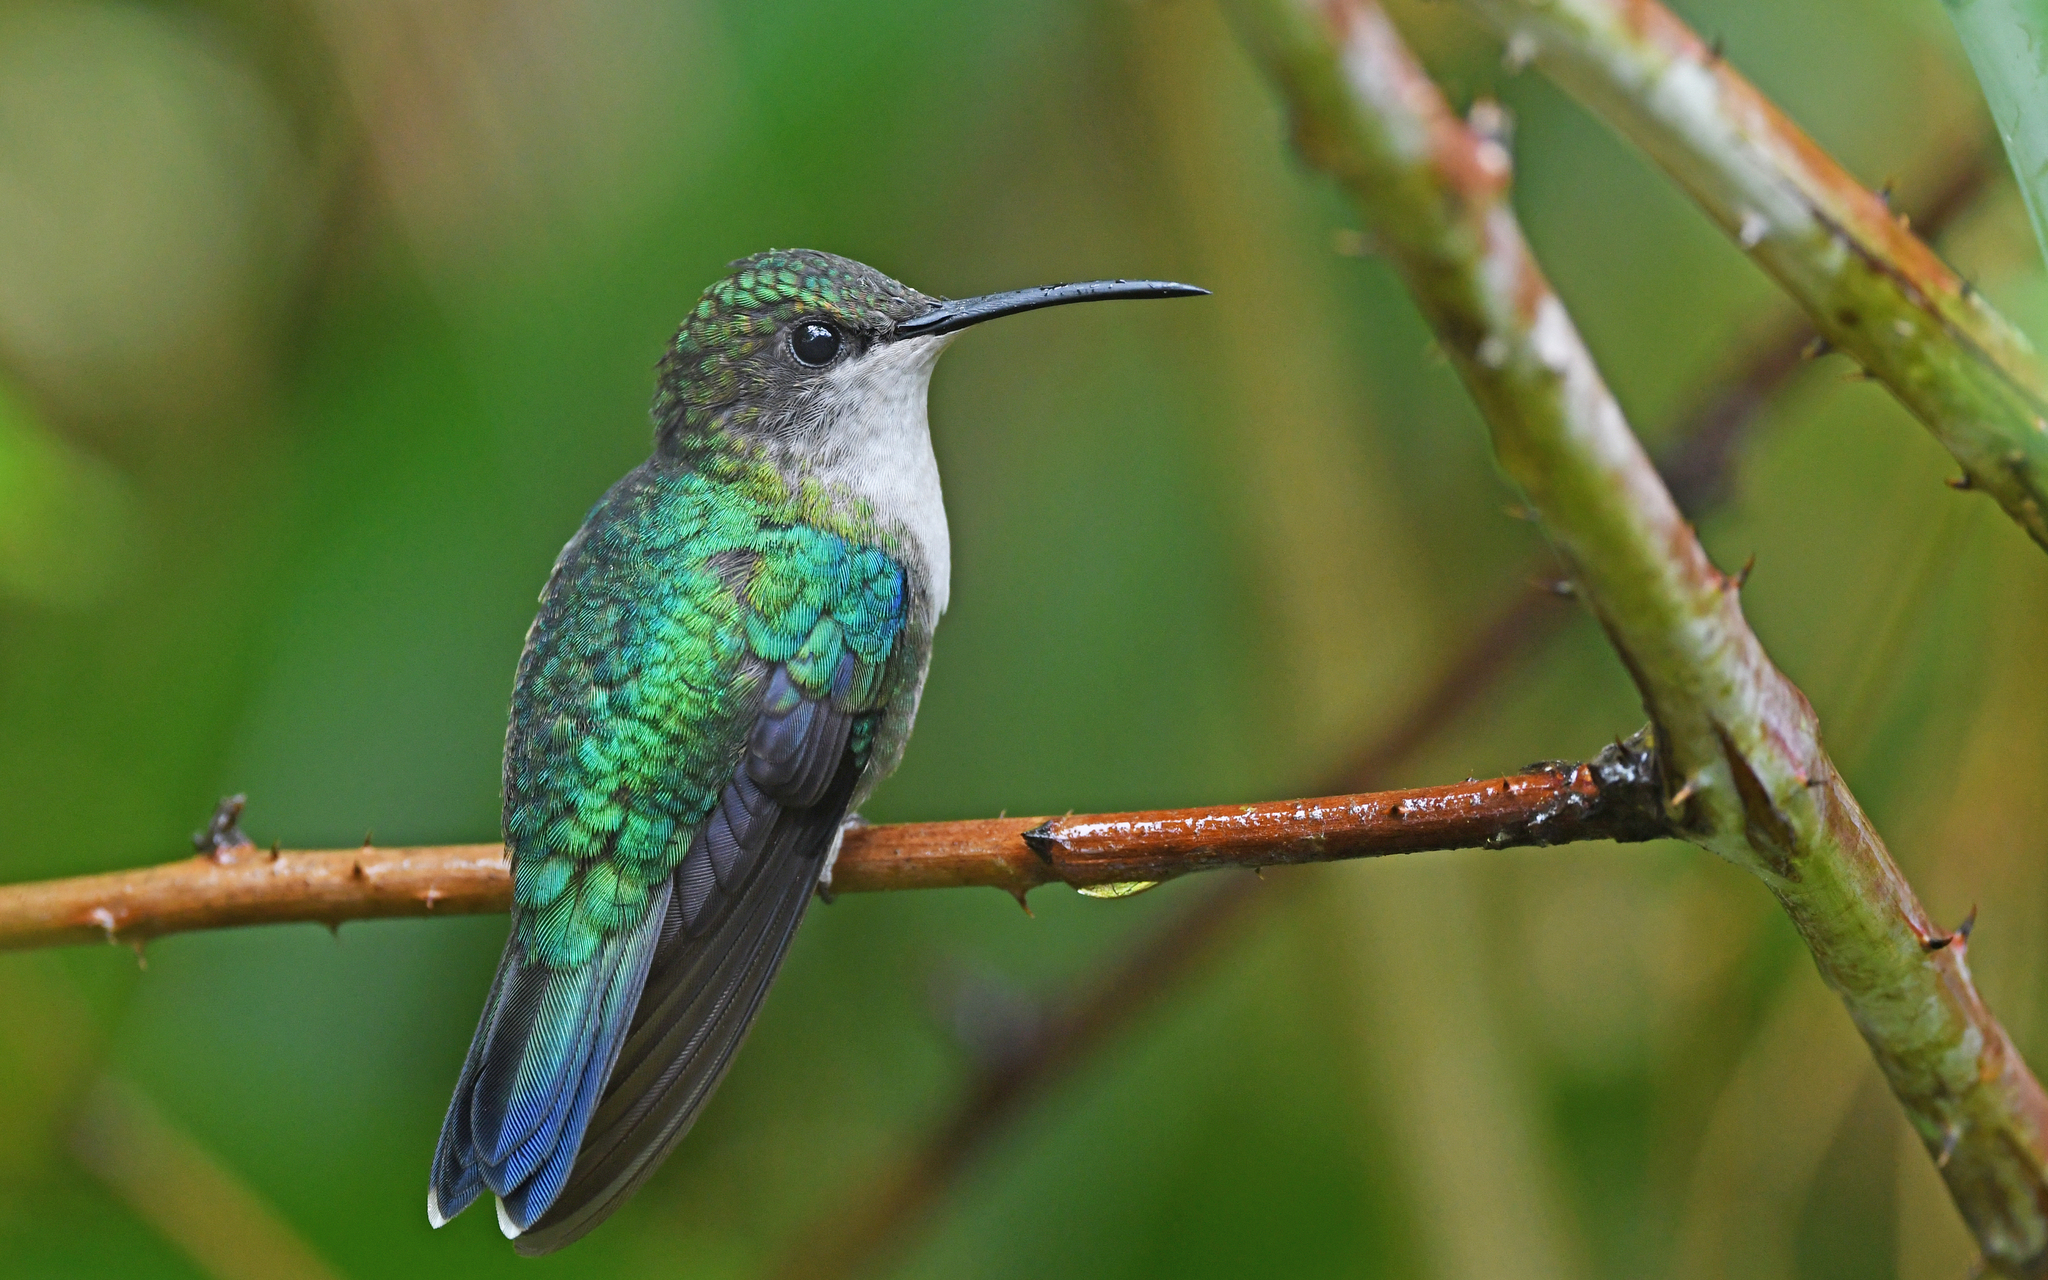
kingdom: Animalia
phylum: Chordata
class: Aves
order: Apodiformes
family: Trochilidae
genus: Thalurania
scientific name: Thalurania colombica
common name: Crowned woodnymph
